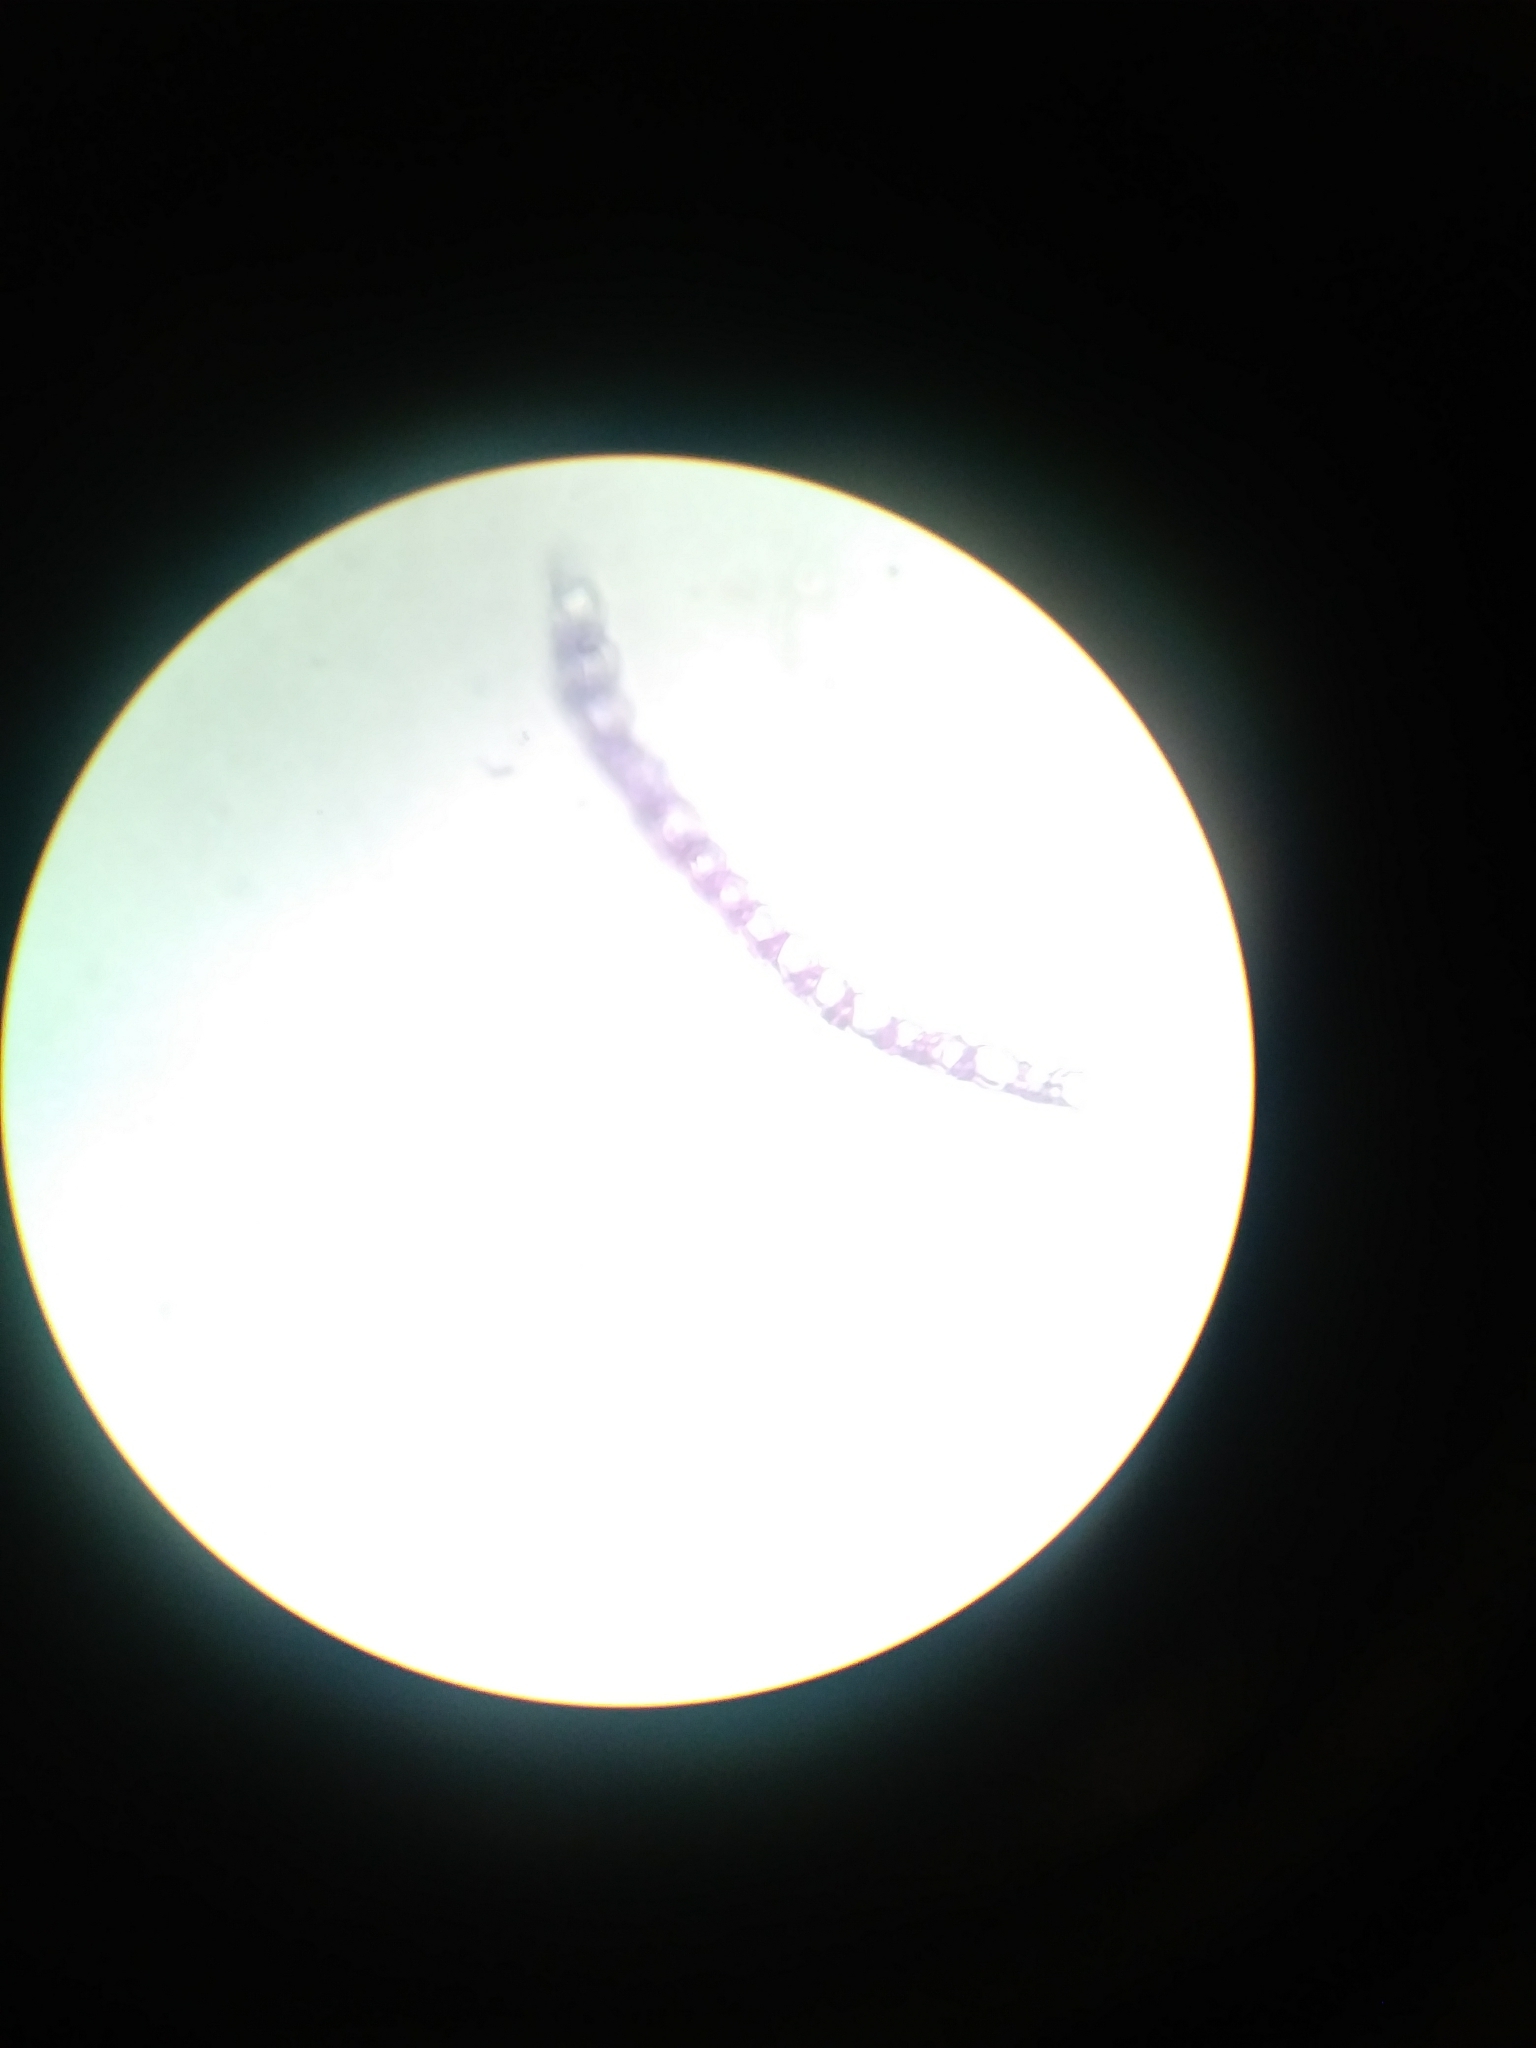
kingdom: Plantae
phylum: Bryophyta
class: Sphagnopsida
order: Sphagnales
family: Sphagnaceae
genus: Sphagnum
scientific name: Sphagnum pulchrum
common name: Beautiful peat moss
